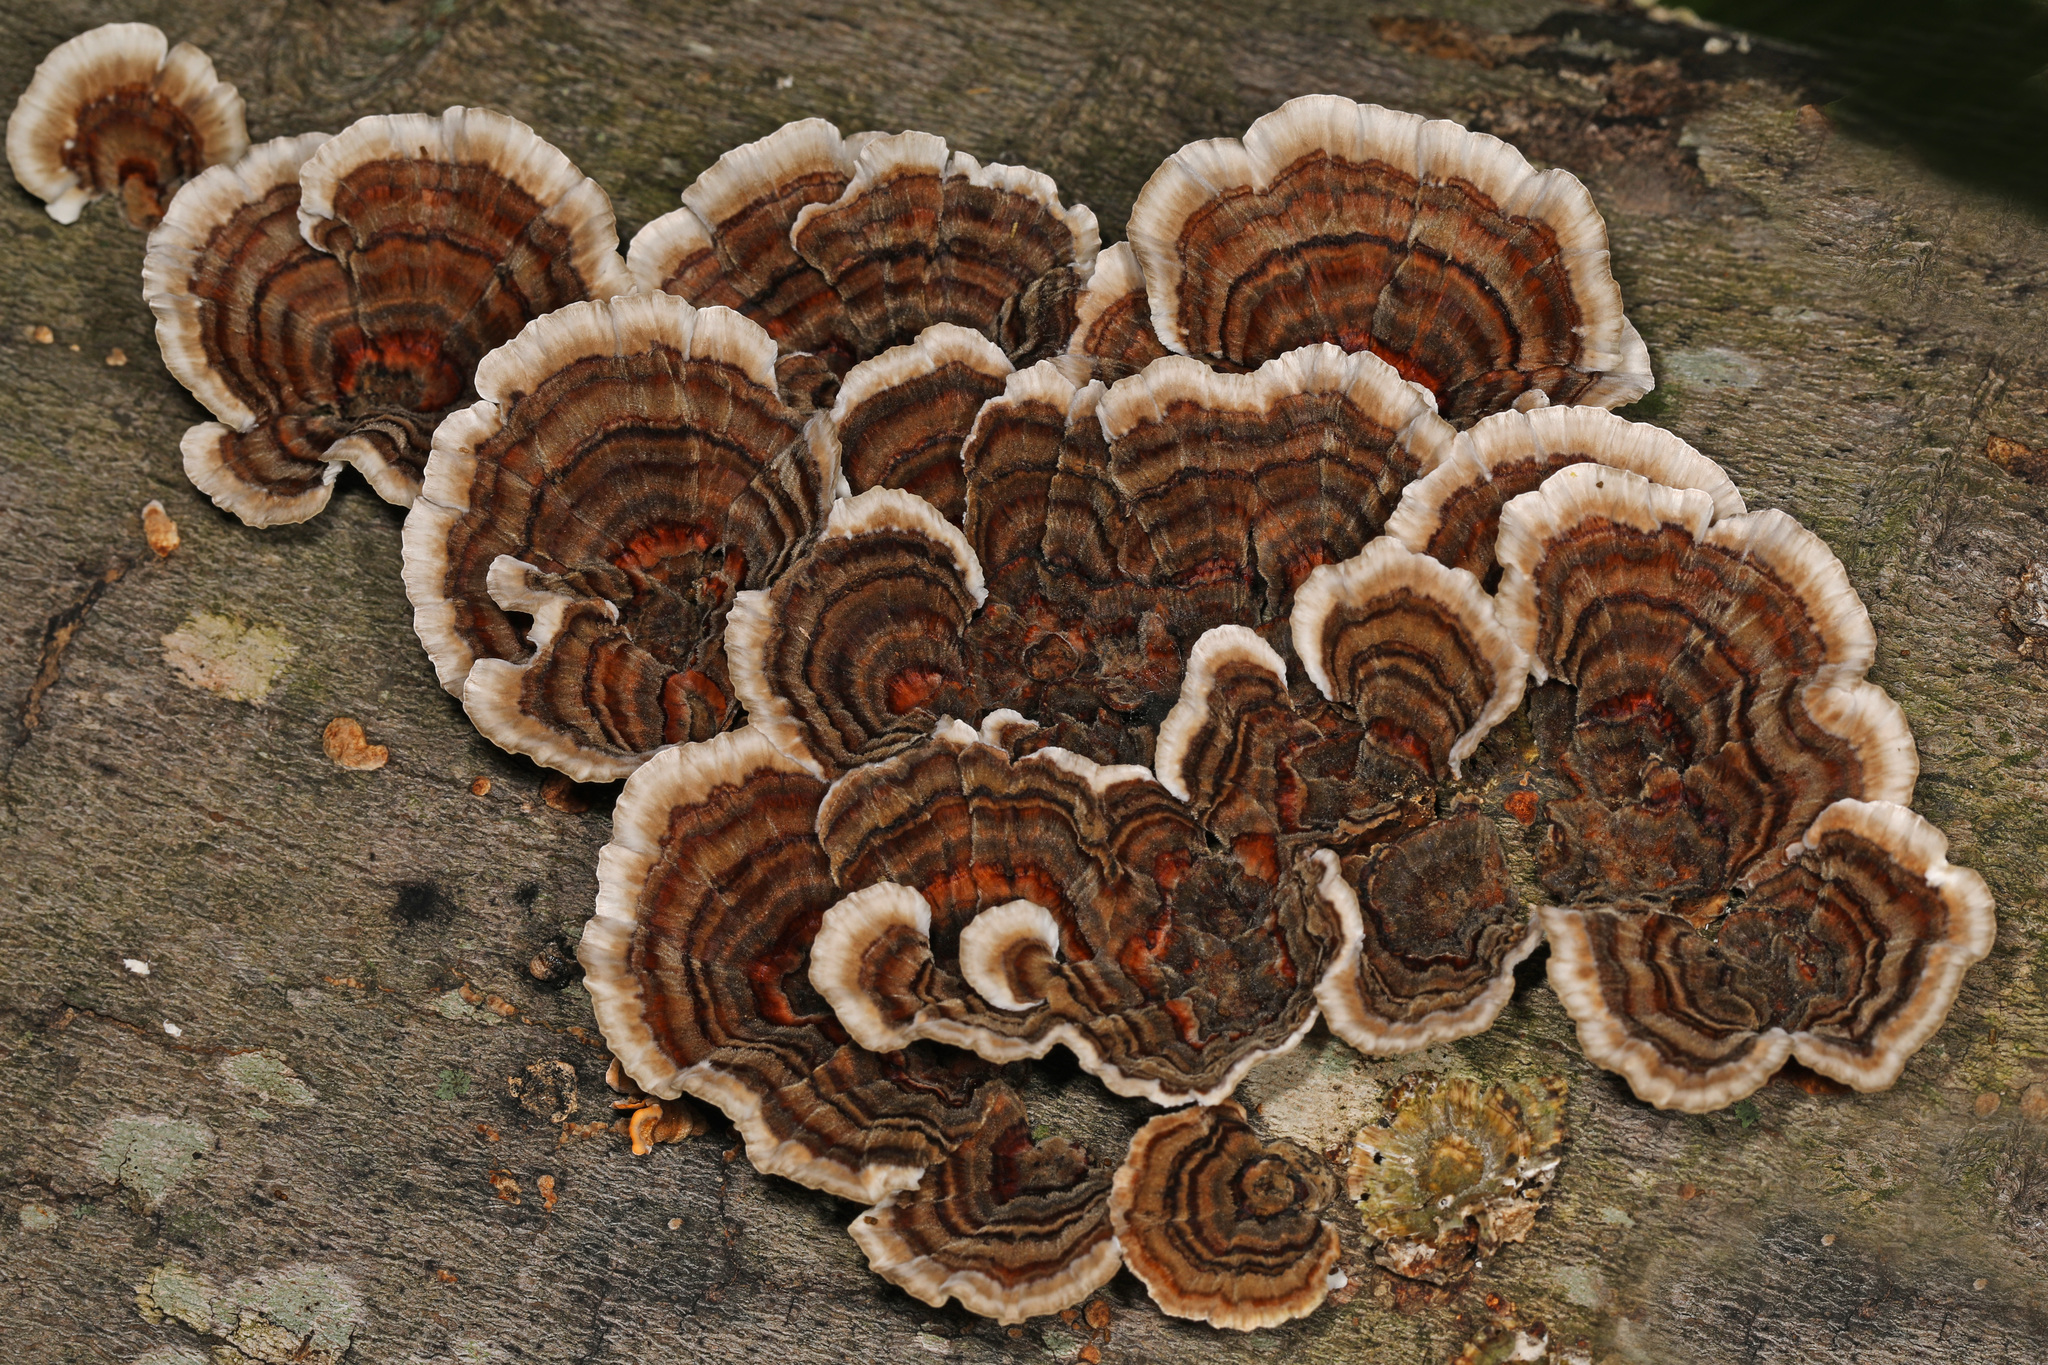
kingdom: Fungi
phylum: Basidiomycota
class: Agaricomycetes
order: Polyporales
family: Polyporaceae
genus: Trametes
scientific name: Trametes versicolor
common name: Turkeytail
